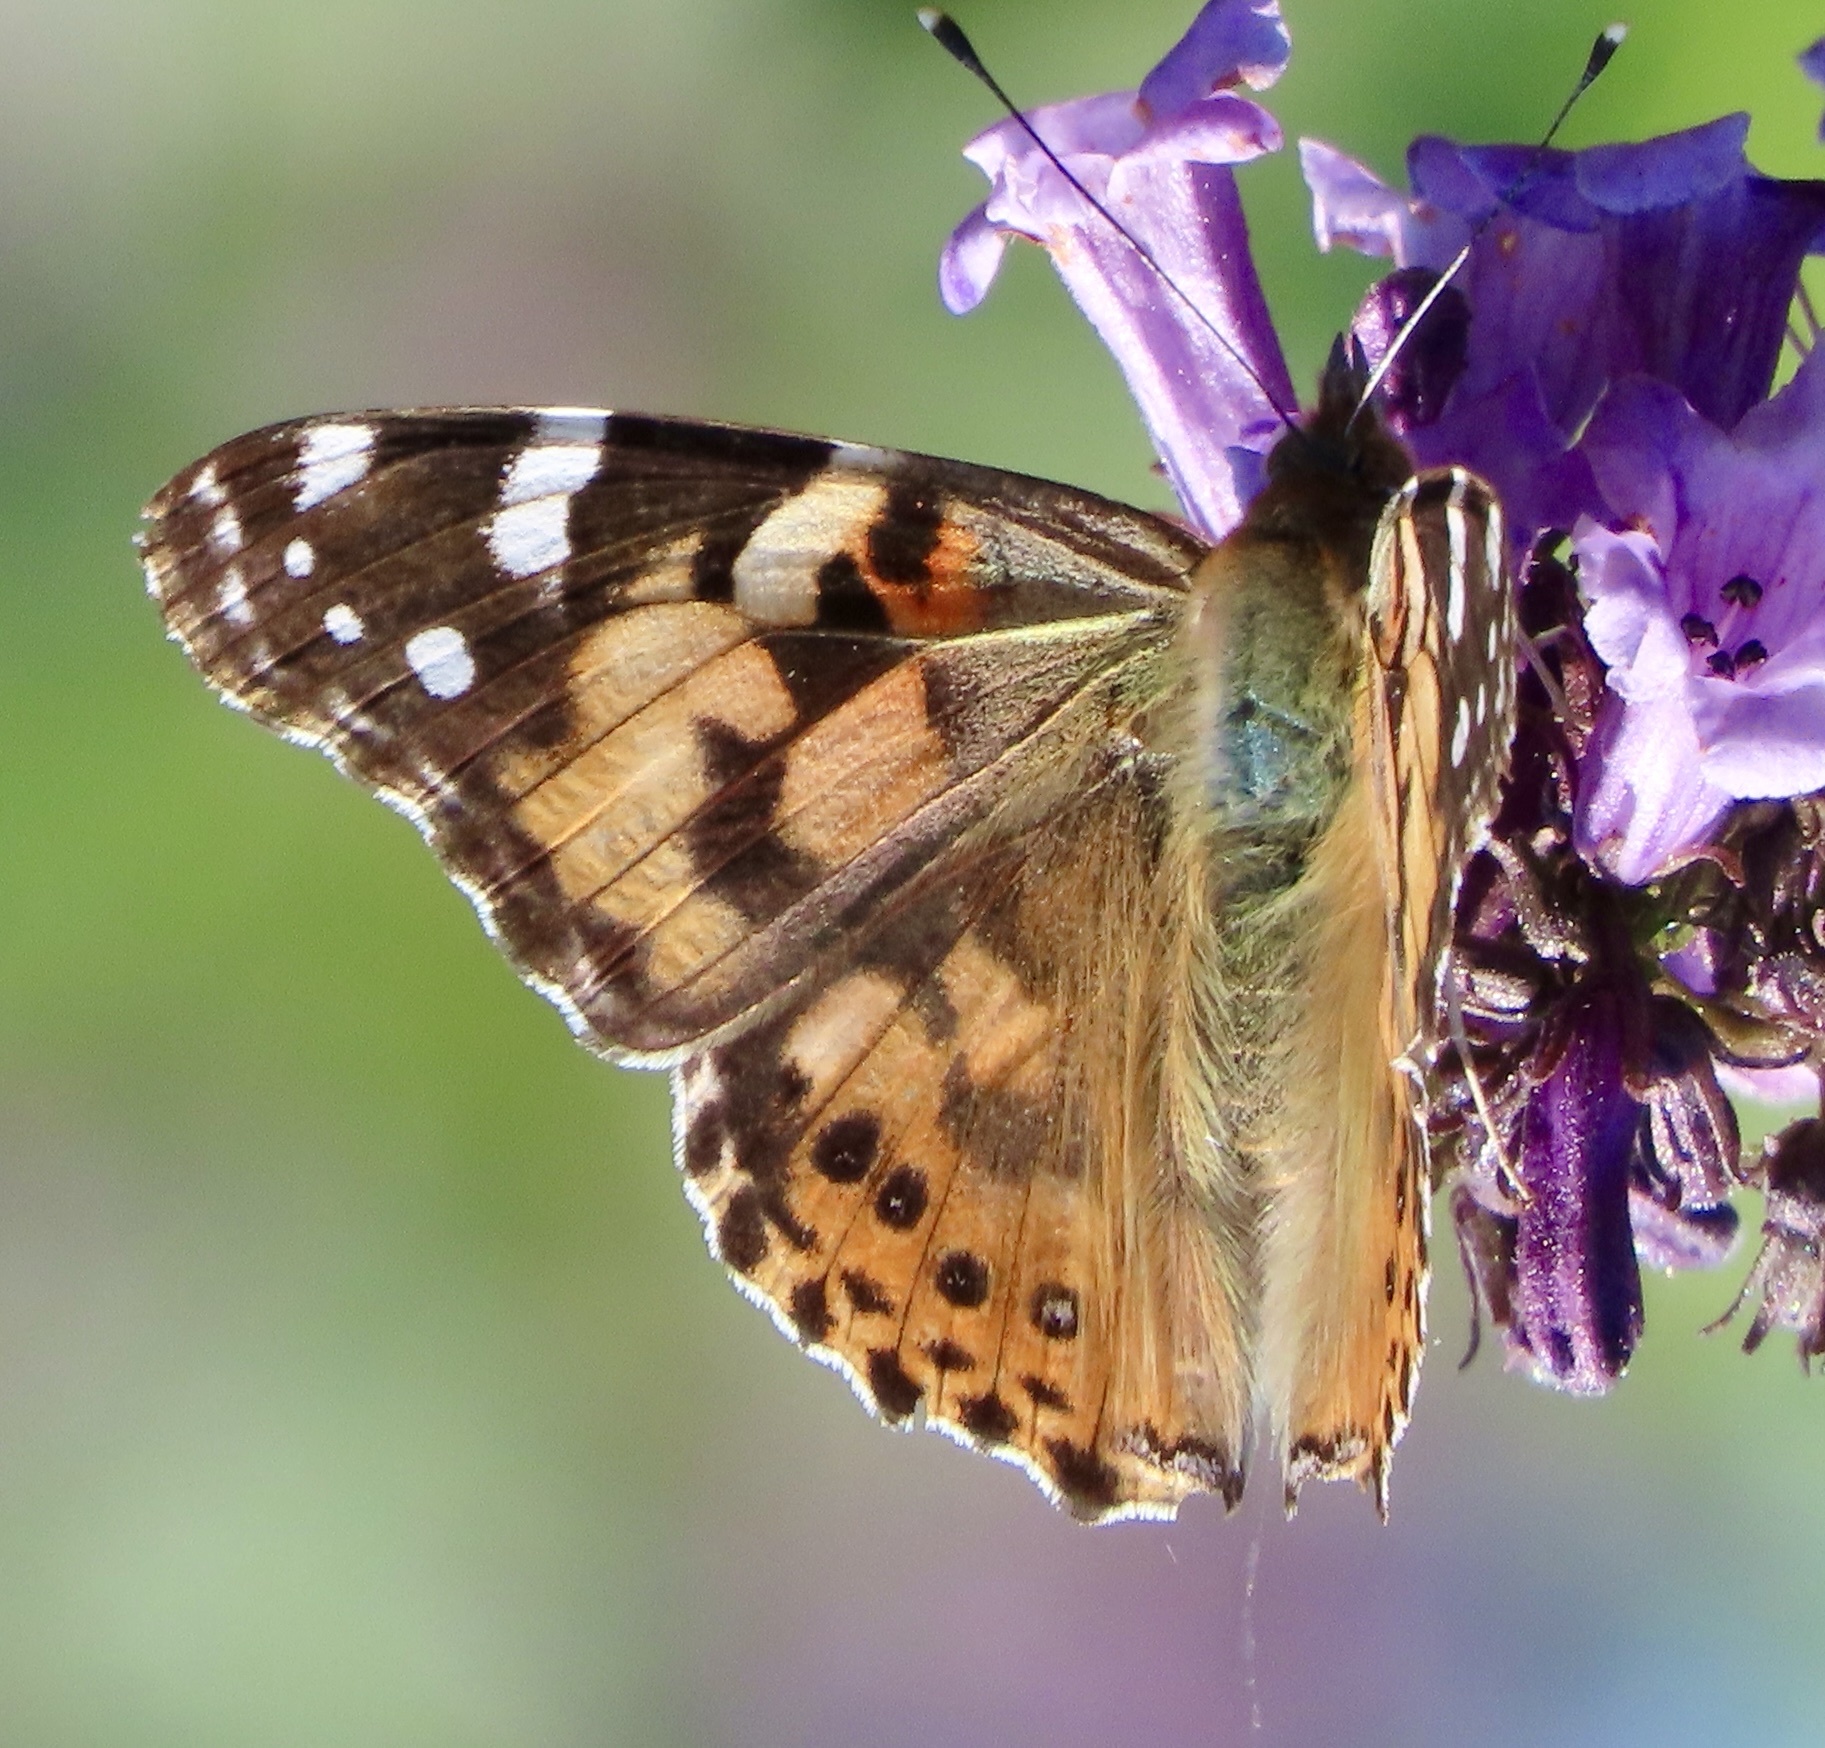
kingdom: Animalia
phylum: Arthropoda
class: Insecta
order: Lepidoptera
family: Nymphalidae
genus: Vanessa
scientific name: Vanessa cardui
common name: Painted lady
